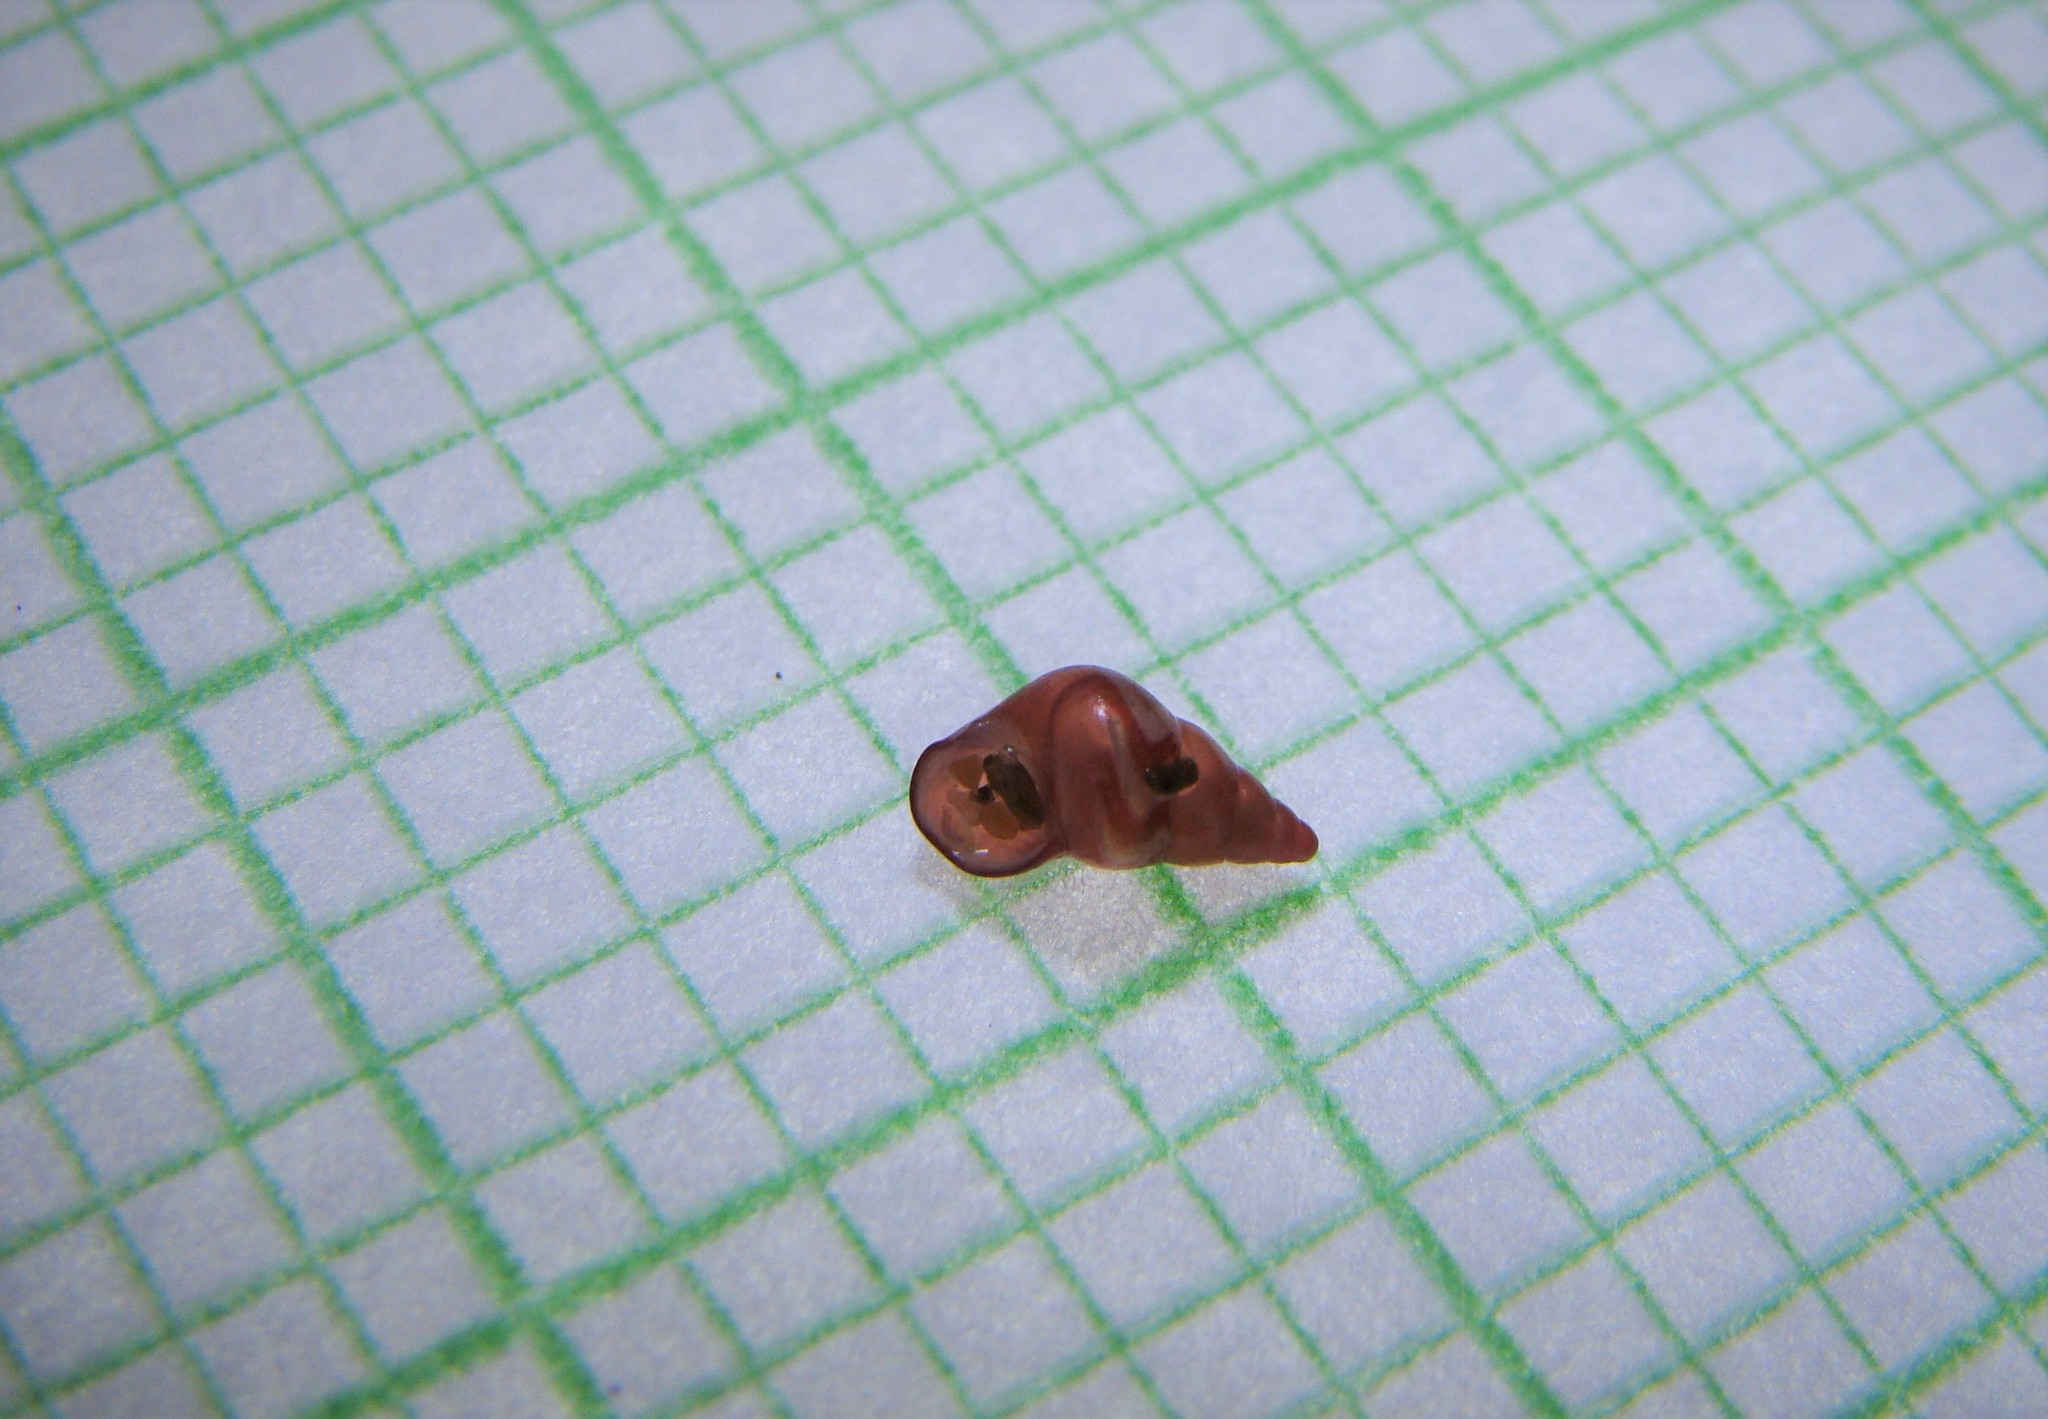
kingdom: Animalia
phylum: Mollusca
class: Gastropoda
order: Littorinimorpha
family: Eatoniellidae
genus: Eatoniella
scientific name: Eatoniella flammulata
